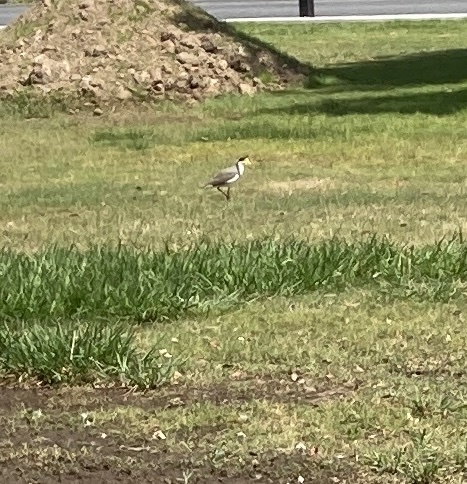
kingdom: Animalia
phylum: Chordata
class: Aves
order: Charadriiformes
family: Charadriidae
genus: Vanellus
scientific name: Vanellus miles
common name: Masked lapwing
